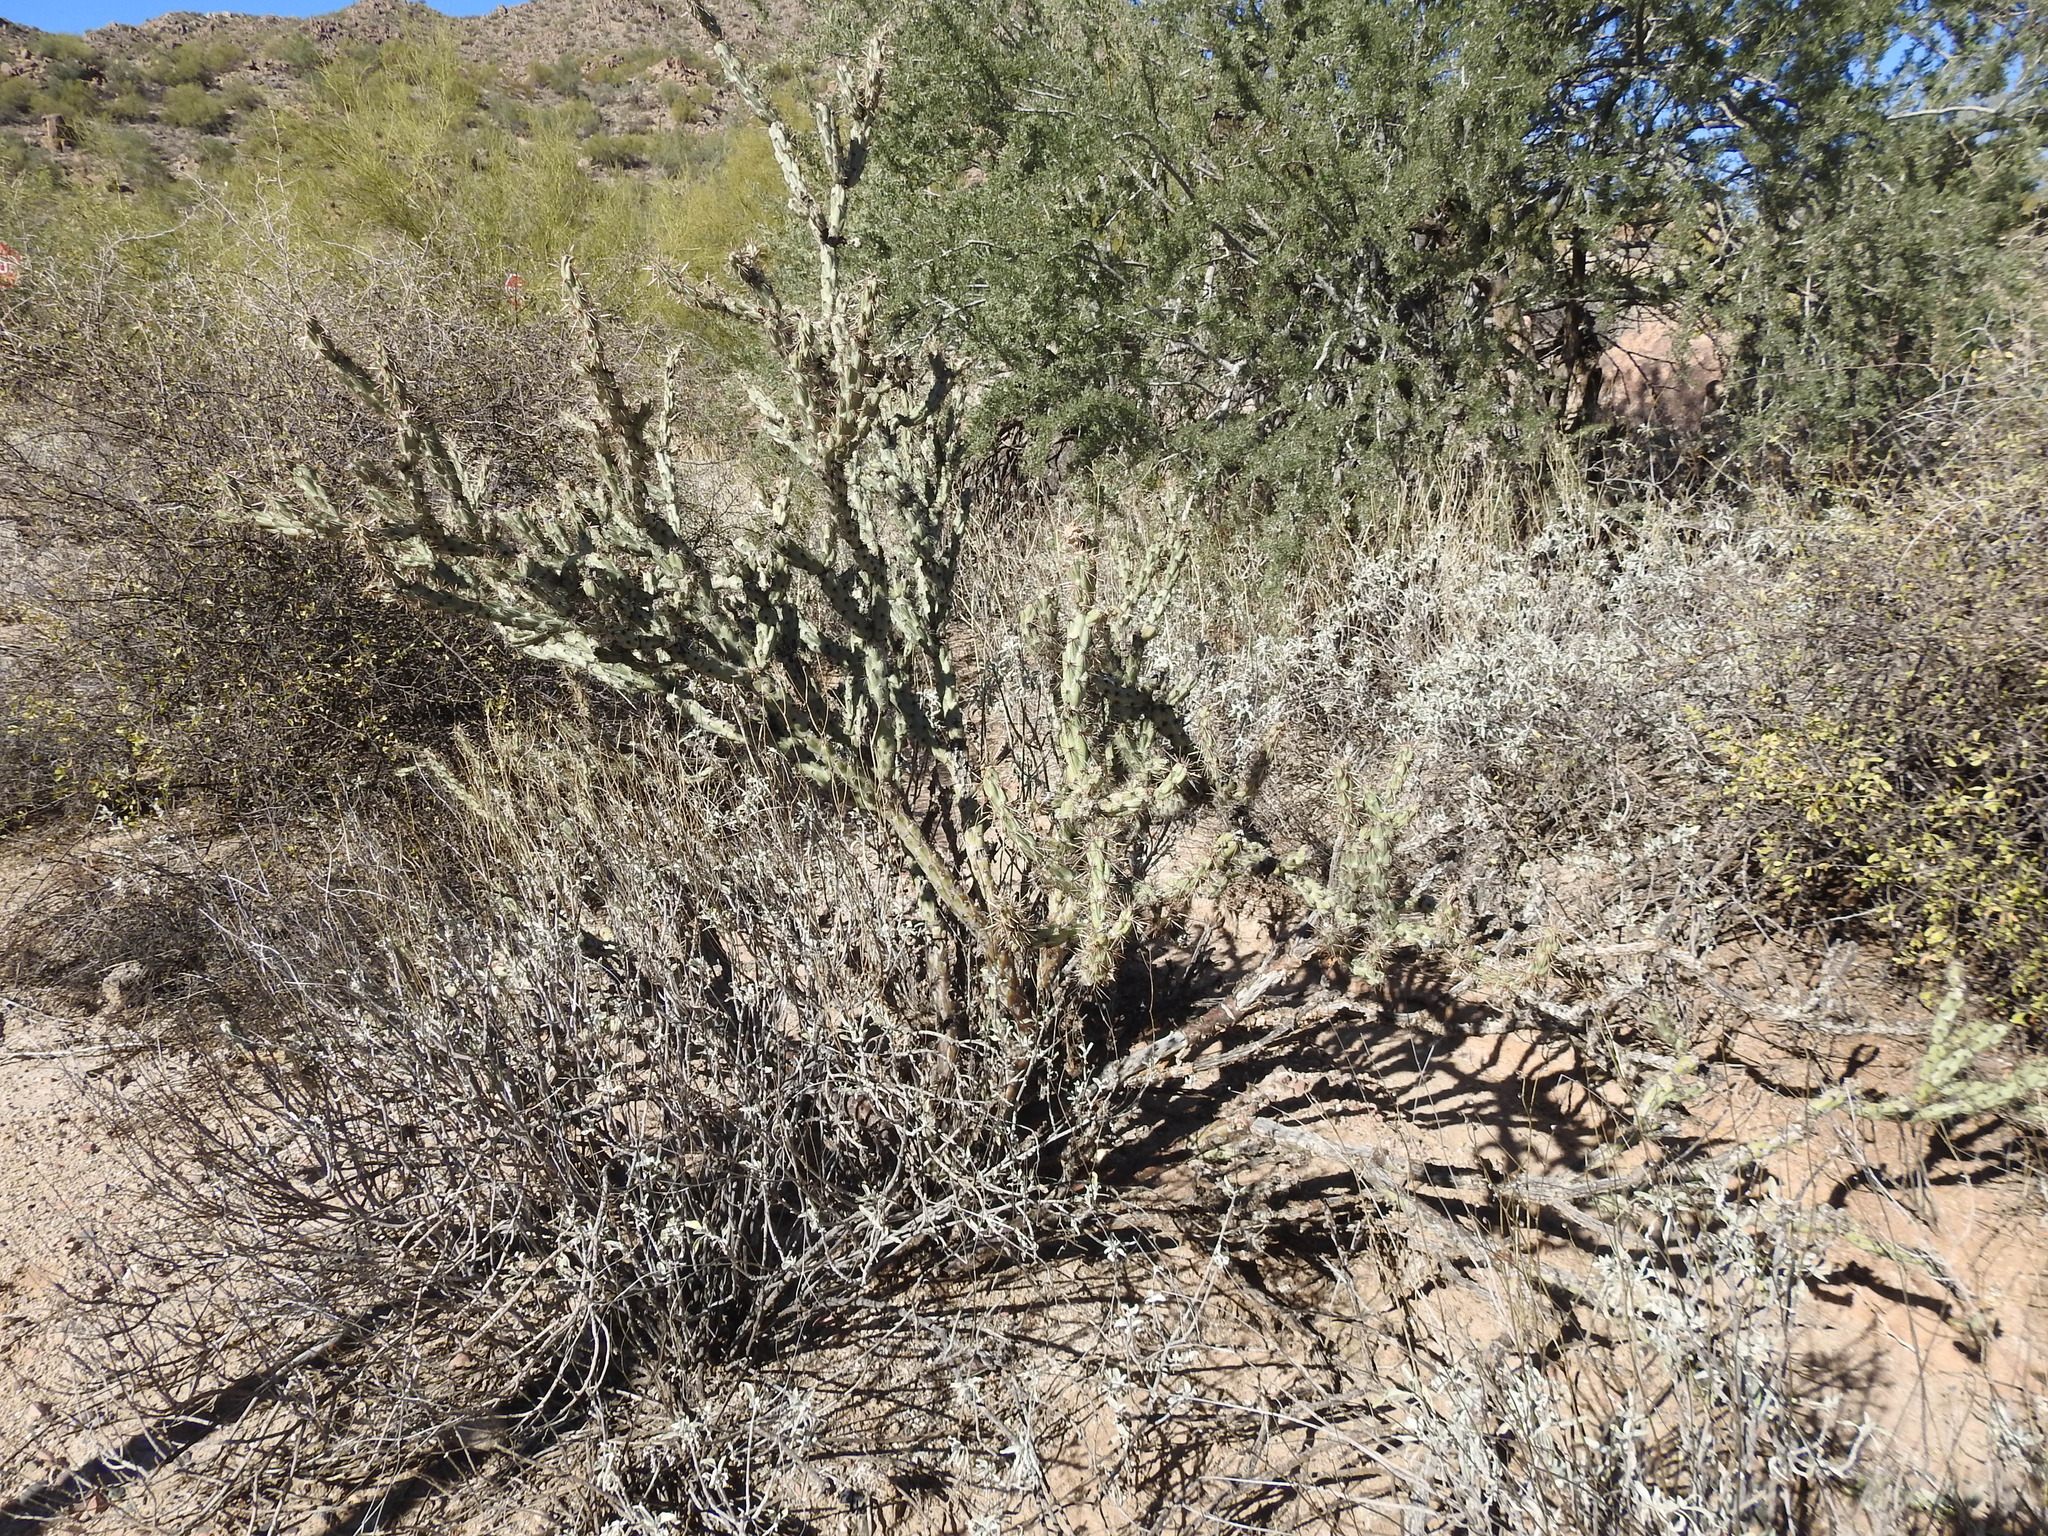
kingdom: Plantae
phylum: Tracheophyta
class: Magnoliopsida
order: Caryophyllales
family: Cactaceae
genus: Cylindropuntia
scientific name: Cylindropuntia acanthocarpa
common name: Buckhorn cholla
